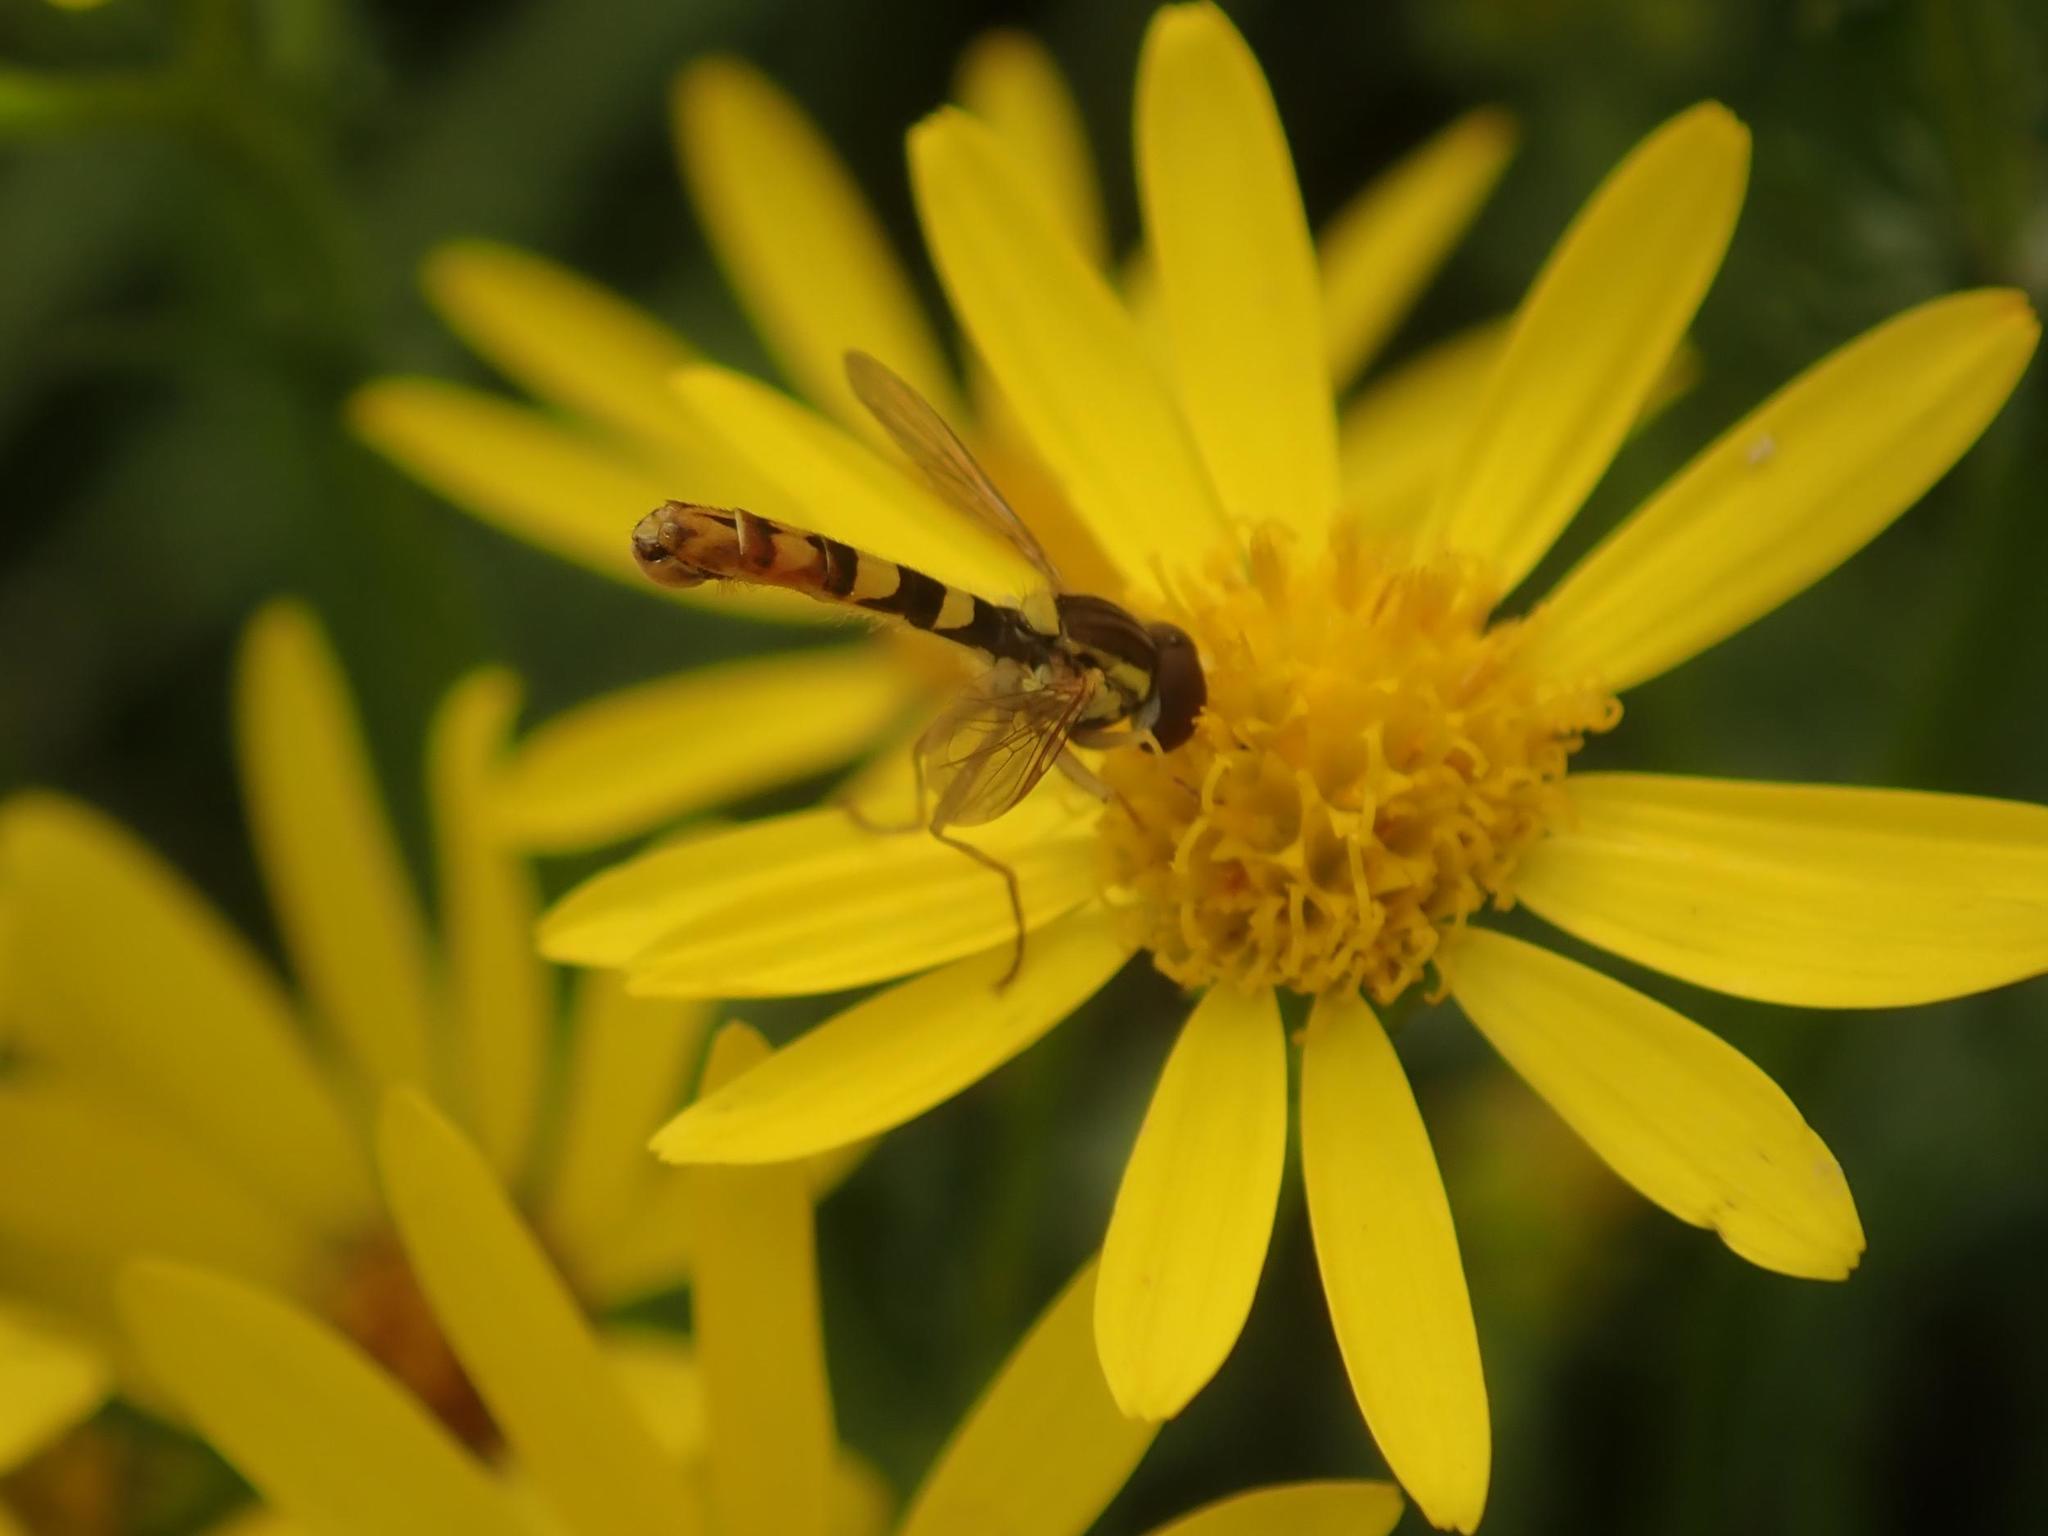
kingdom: Animalia
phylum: Arthropoda
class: Insecta
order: Diptera
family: Syrphidae
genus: Sphaerophoria
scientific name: Sphaerophoria scripta
